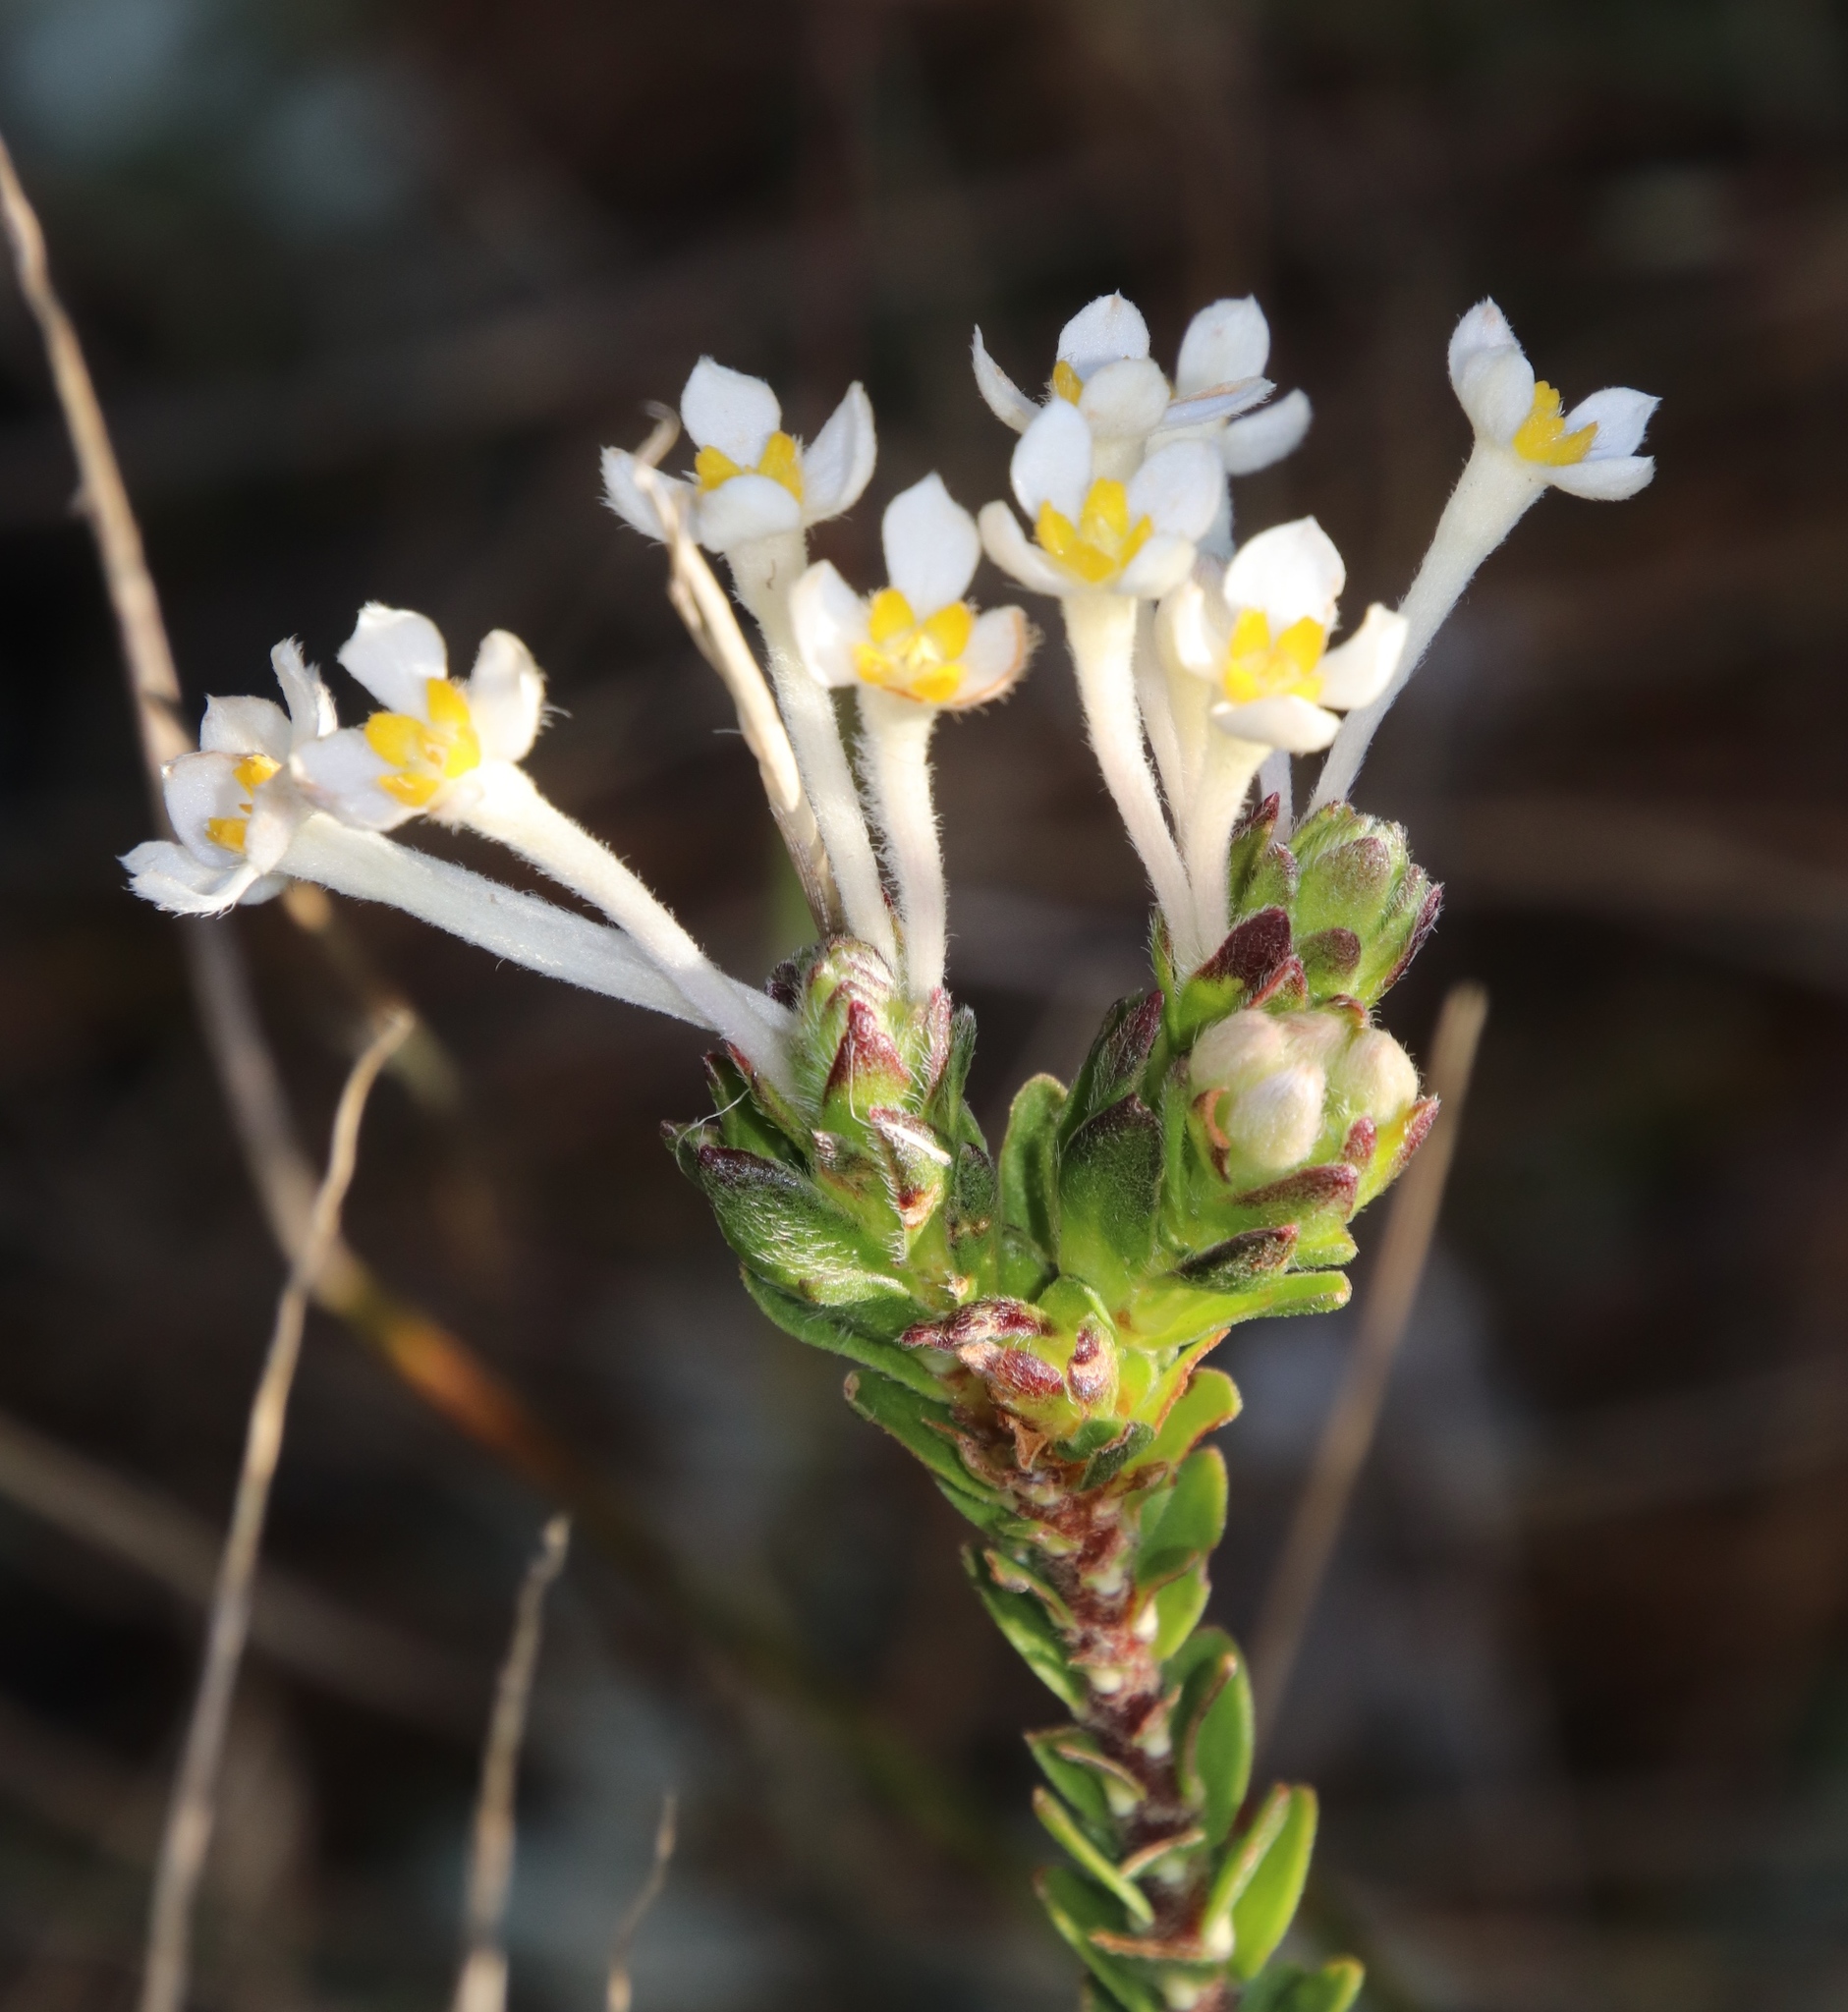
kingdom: Plantae
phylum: Tracheophyta
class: Magnoliopsida
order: Malvales
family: Thymelaeaceae
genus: Gnidia
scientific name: Gnidia tomentosa
